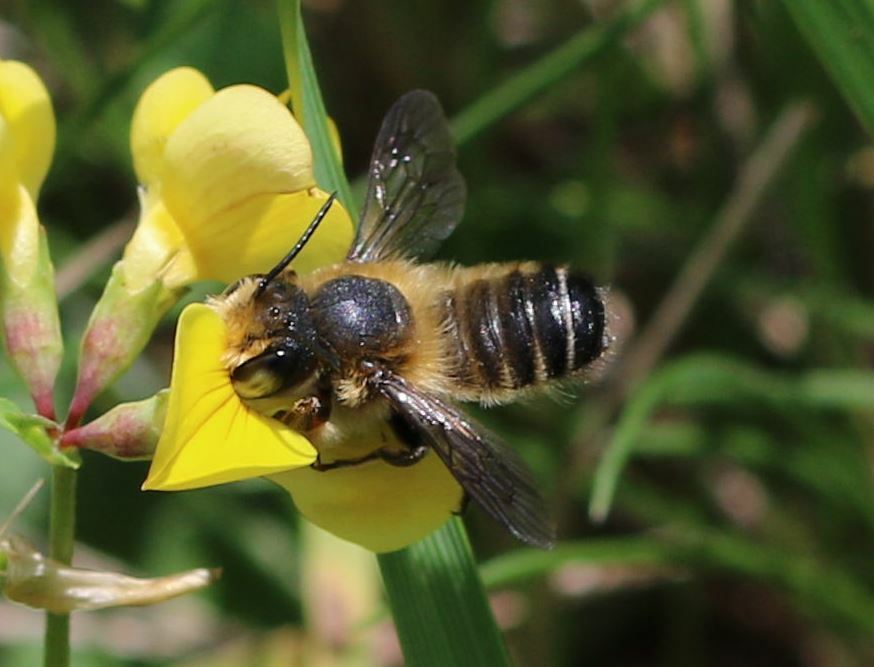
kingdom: Animalia
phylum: Arthropoda
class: Insecta
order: Hymenoptera
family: Megachilidae
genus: Megachile
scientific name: Megachile willughbiella
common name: Willughby's leafcutter bee
